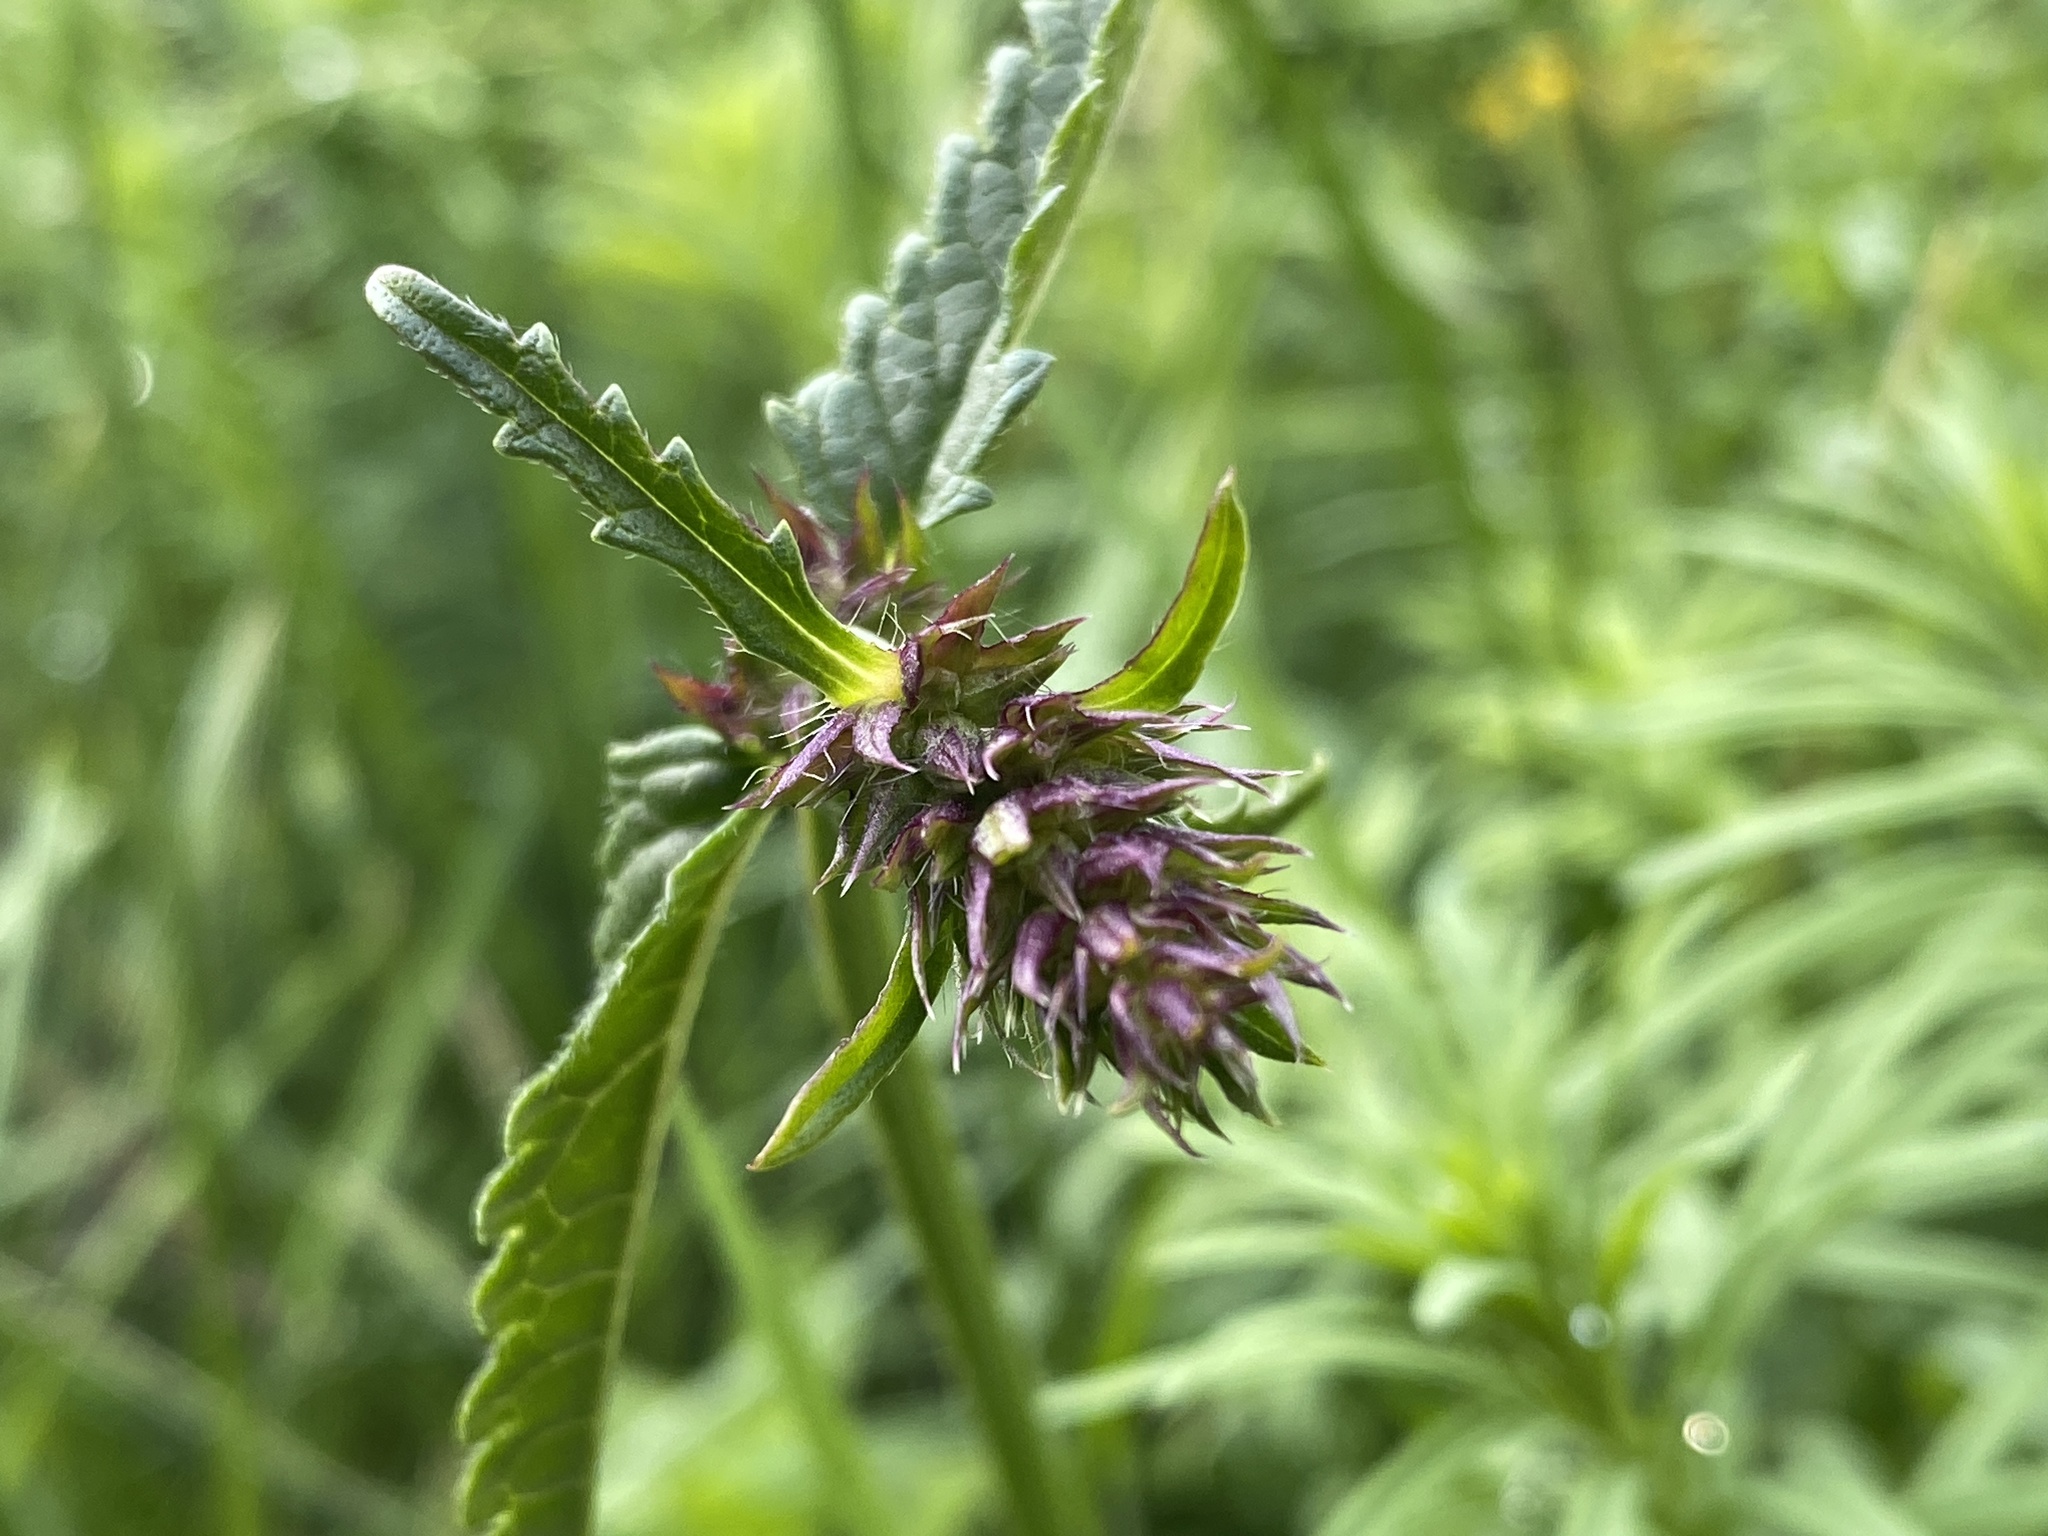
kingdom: Plantae
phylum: Tracheophyta
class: Magnoliopsida
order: Lamiales
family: Lamiaceae
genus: Betonica
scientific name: Betonica officinalis
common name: Bishop's-wort
